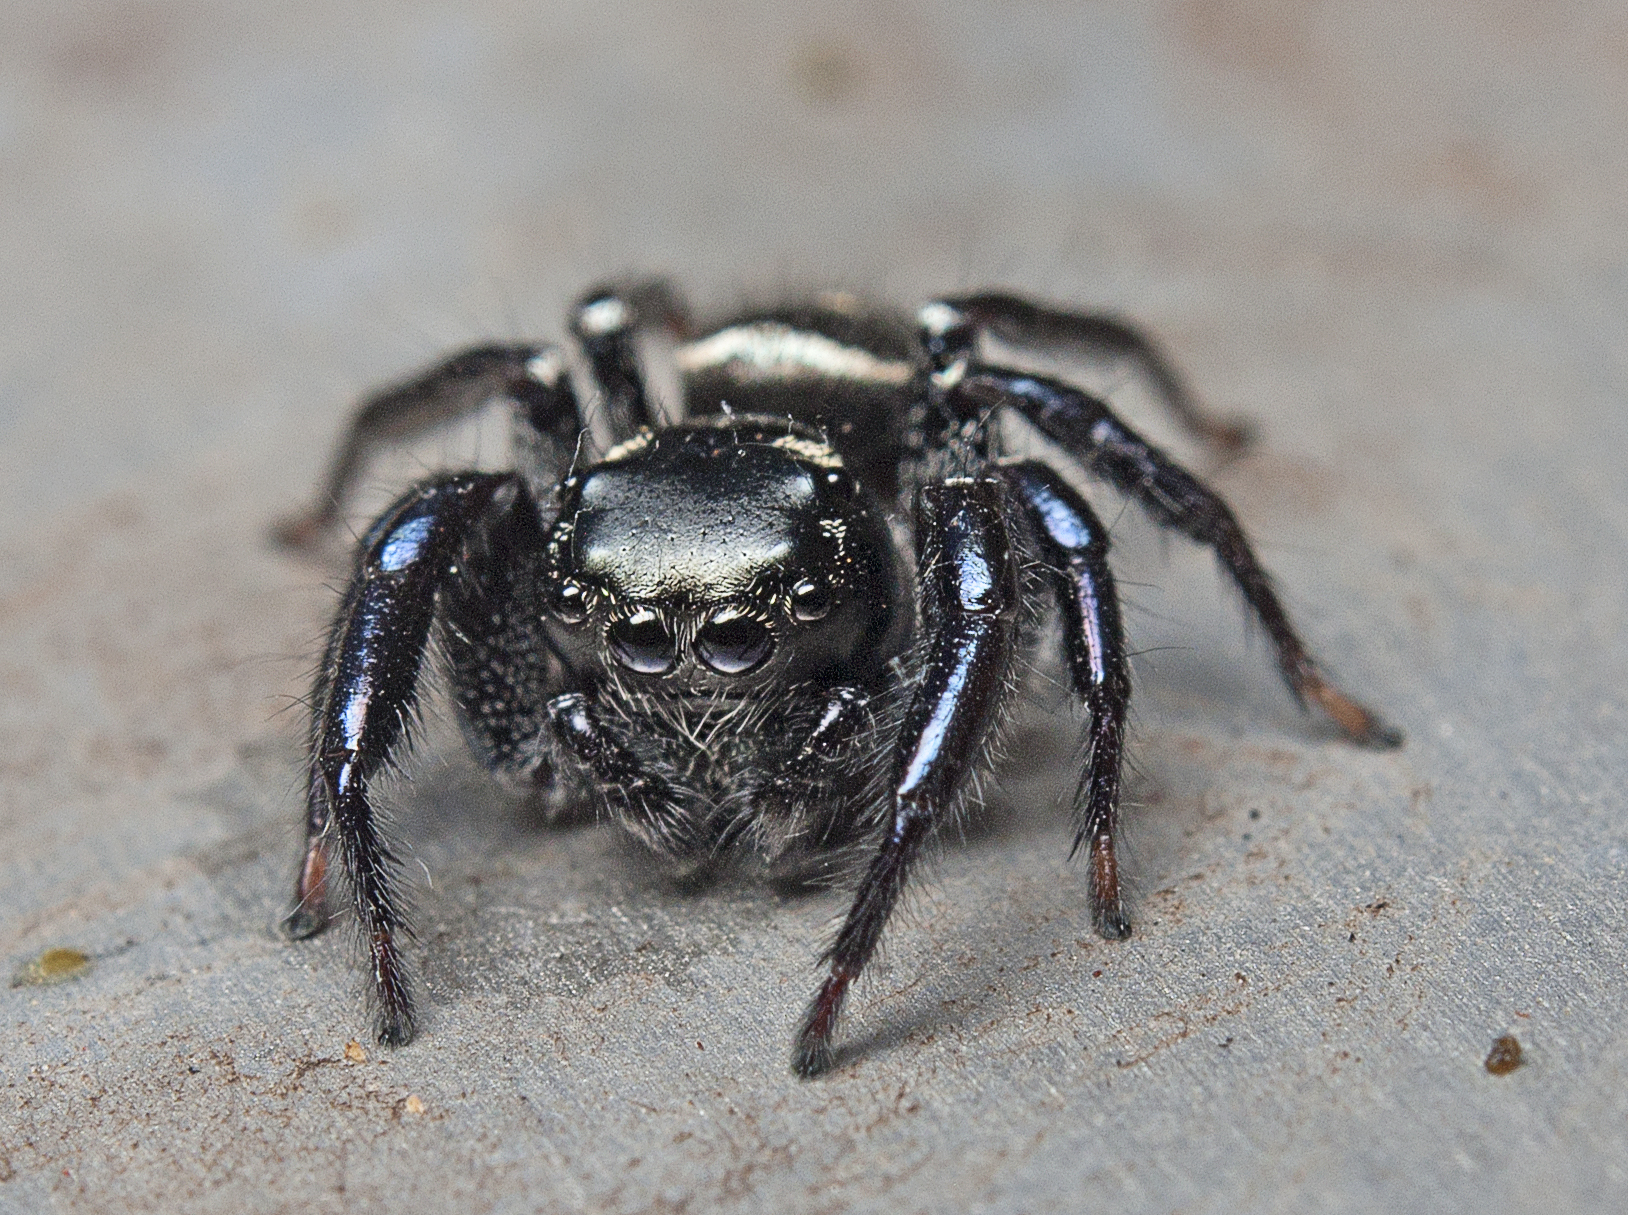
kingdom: Animalia
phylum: Arthropoda
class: Arachnida
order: Araneae
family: Salticidae
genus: Zenodorus
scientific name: Zenodorus orbiculatus
